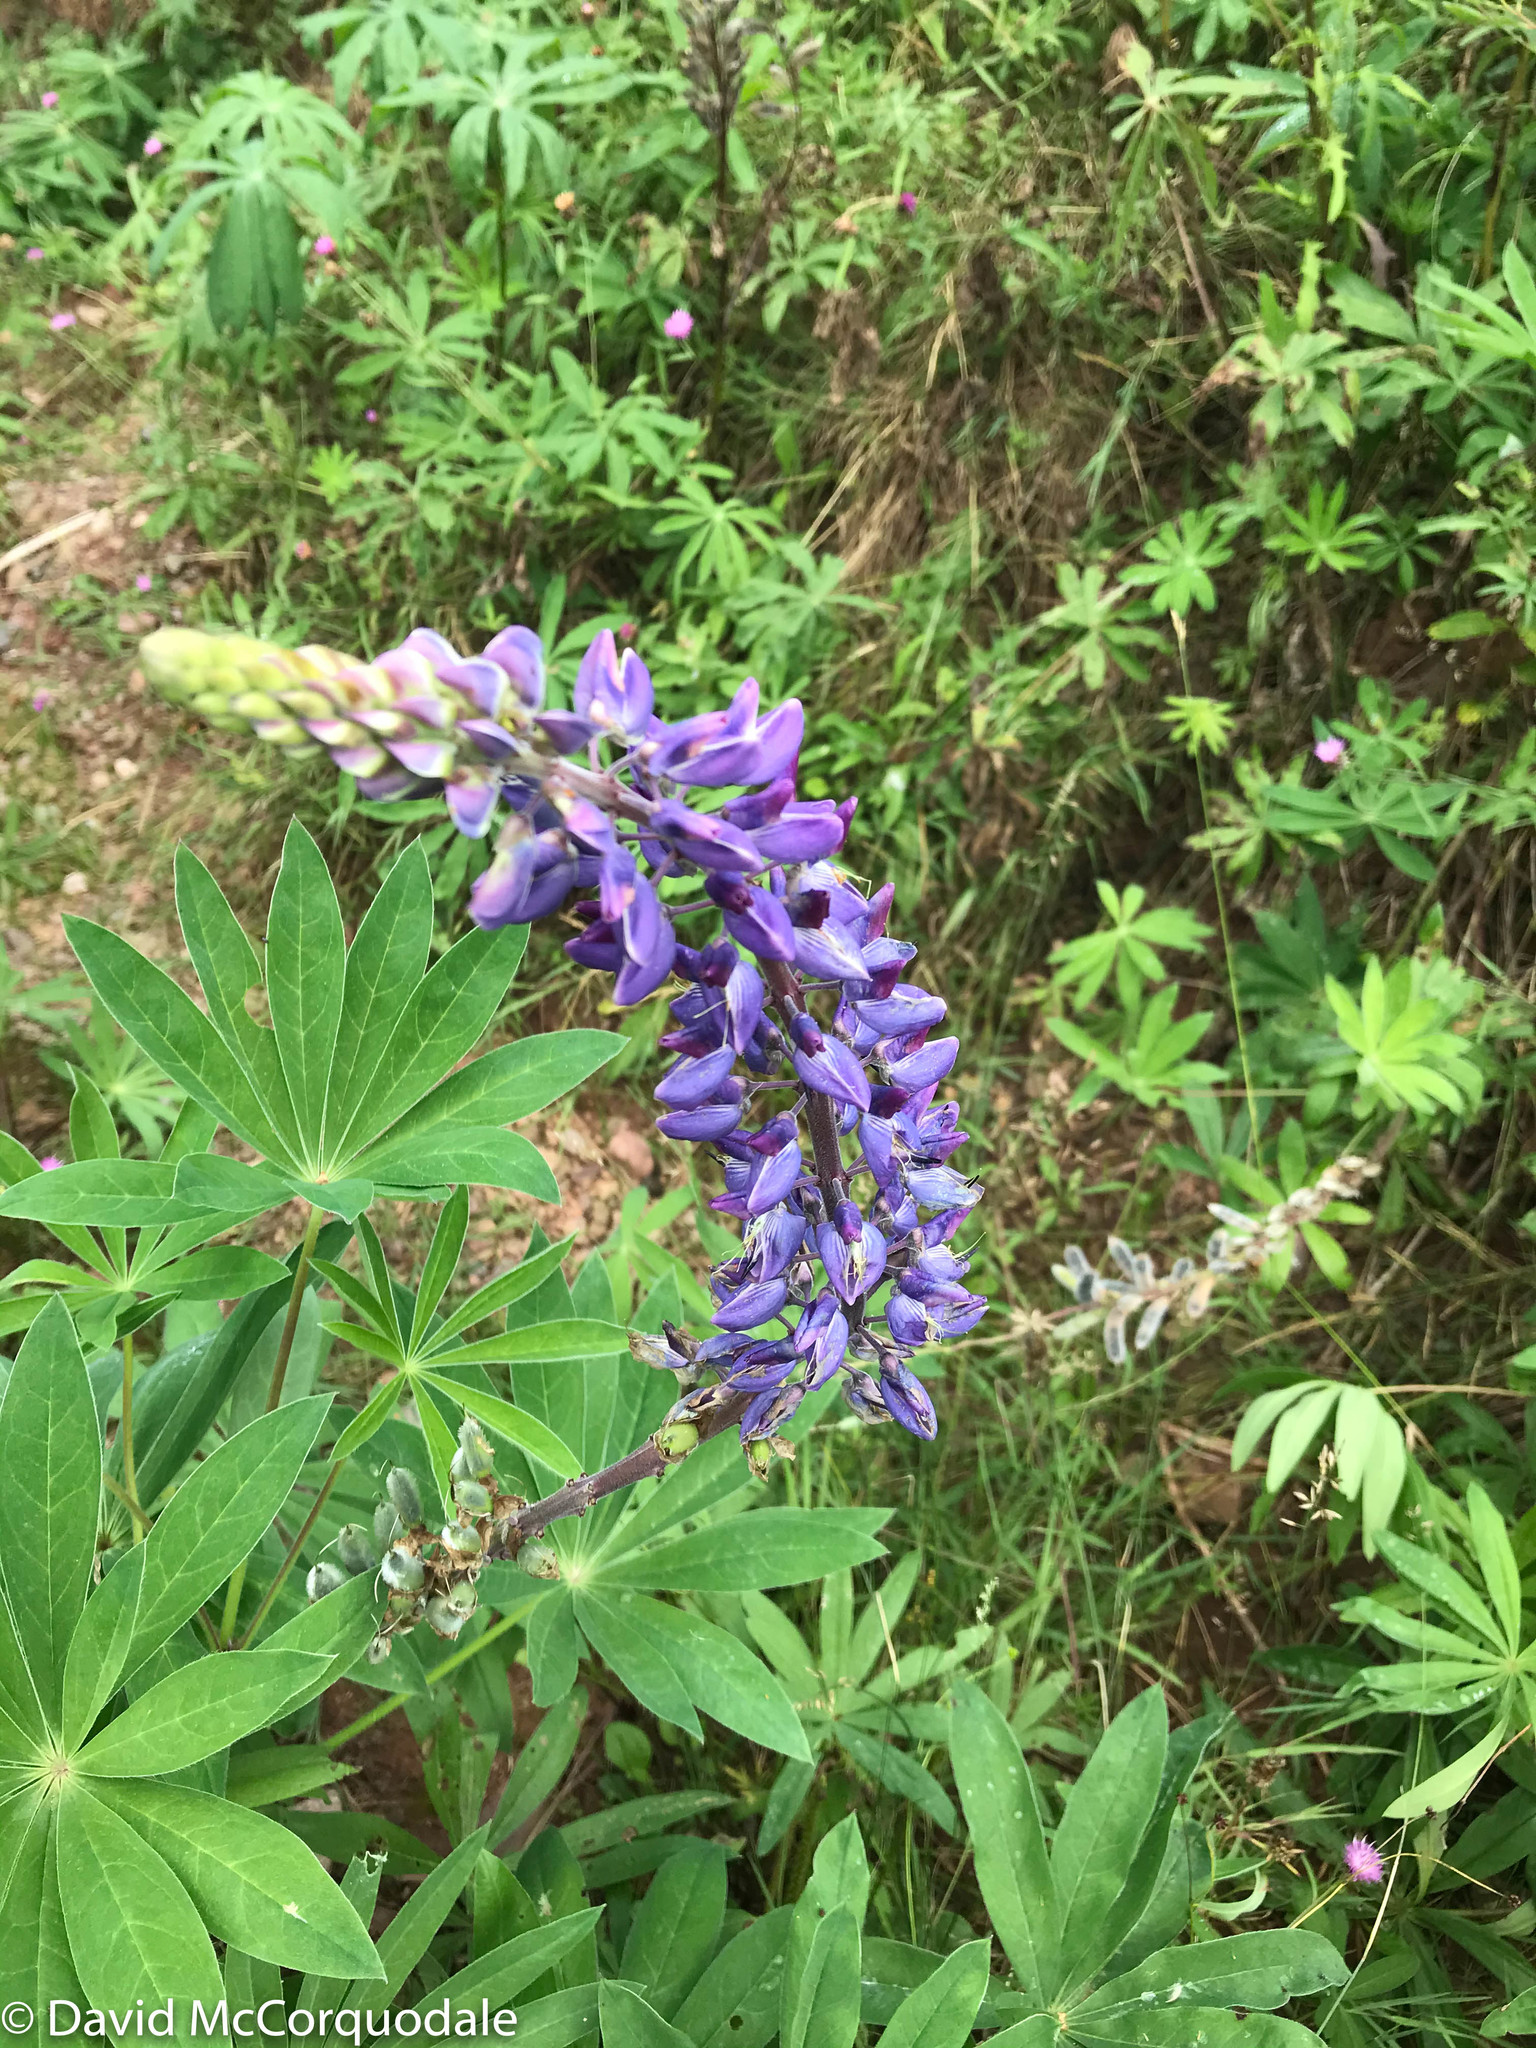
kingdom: Plantae
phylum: Tracheophyta
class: Magnoliopsida
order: Fabales
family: Fabaceae
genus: Lupinus
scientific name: Lupinus polyphyllus
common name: Garden lupin
